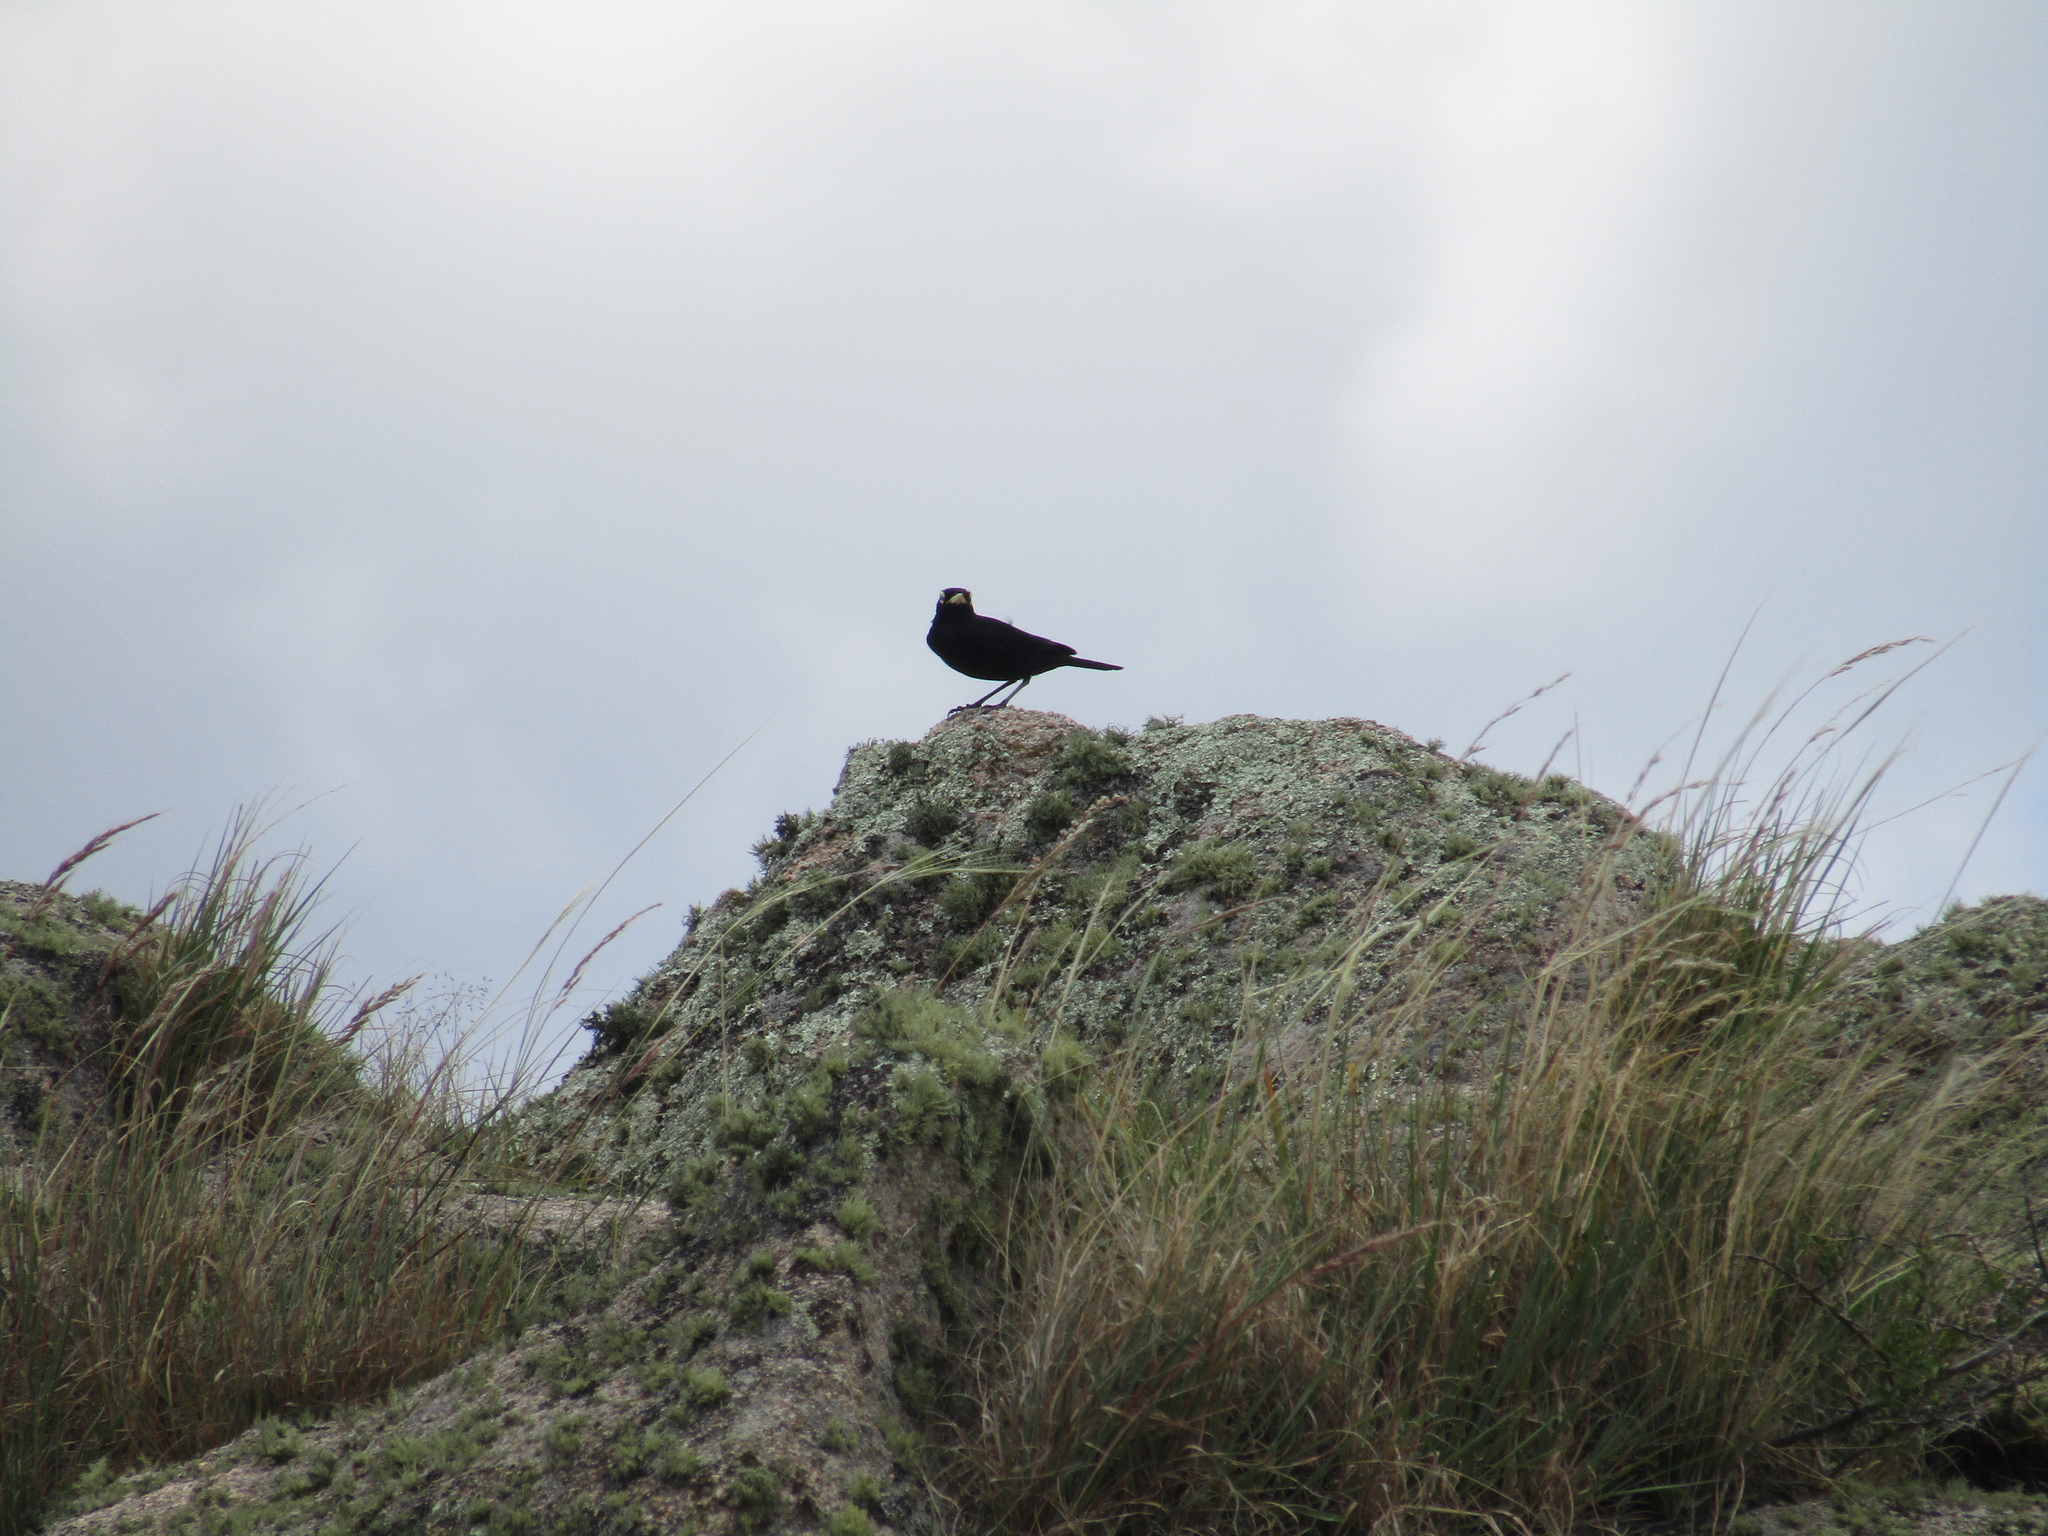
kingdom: Animalia
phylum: Chordata
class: Aves
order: Passeriformes
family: Tyrannidae
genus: Hymenops
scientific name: Hymenops perspicillatus
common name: Spectacled tyrant
